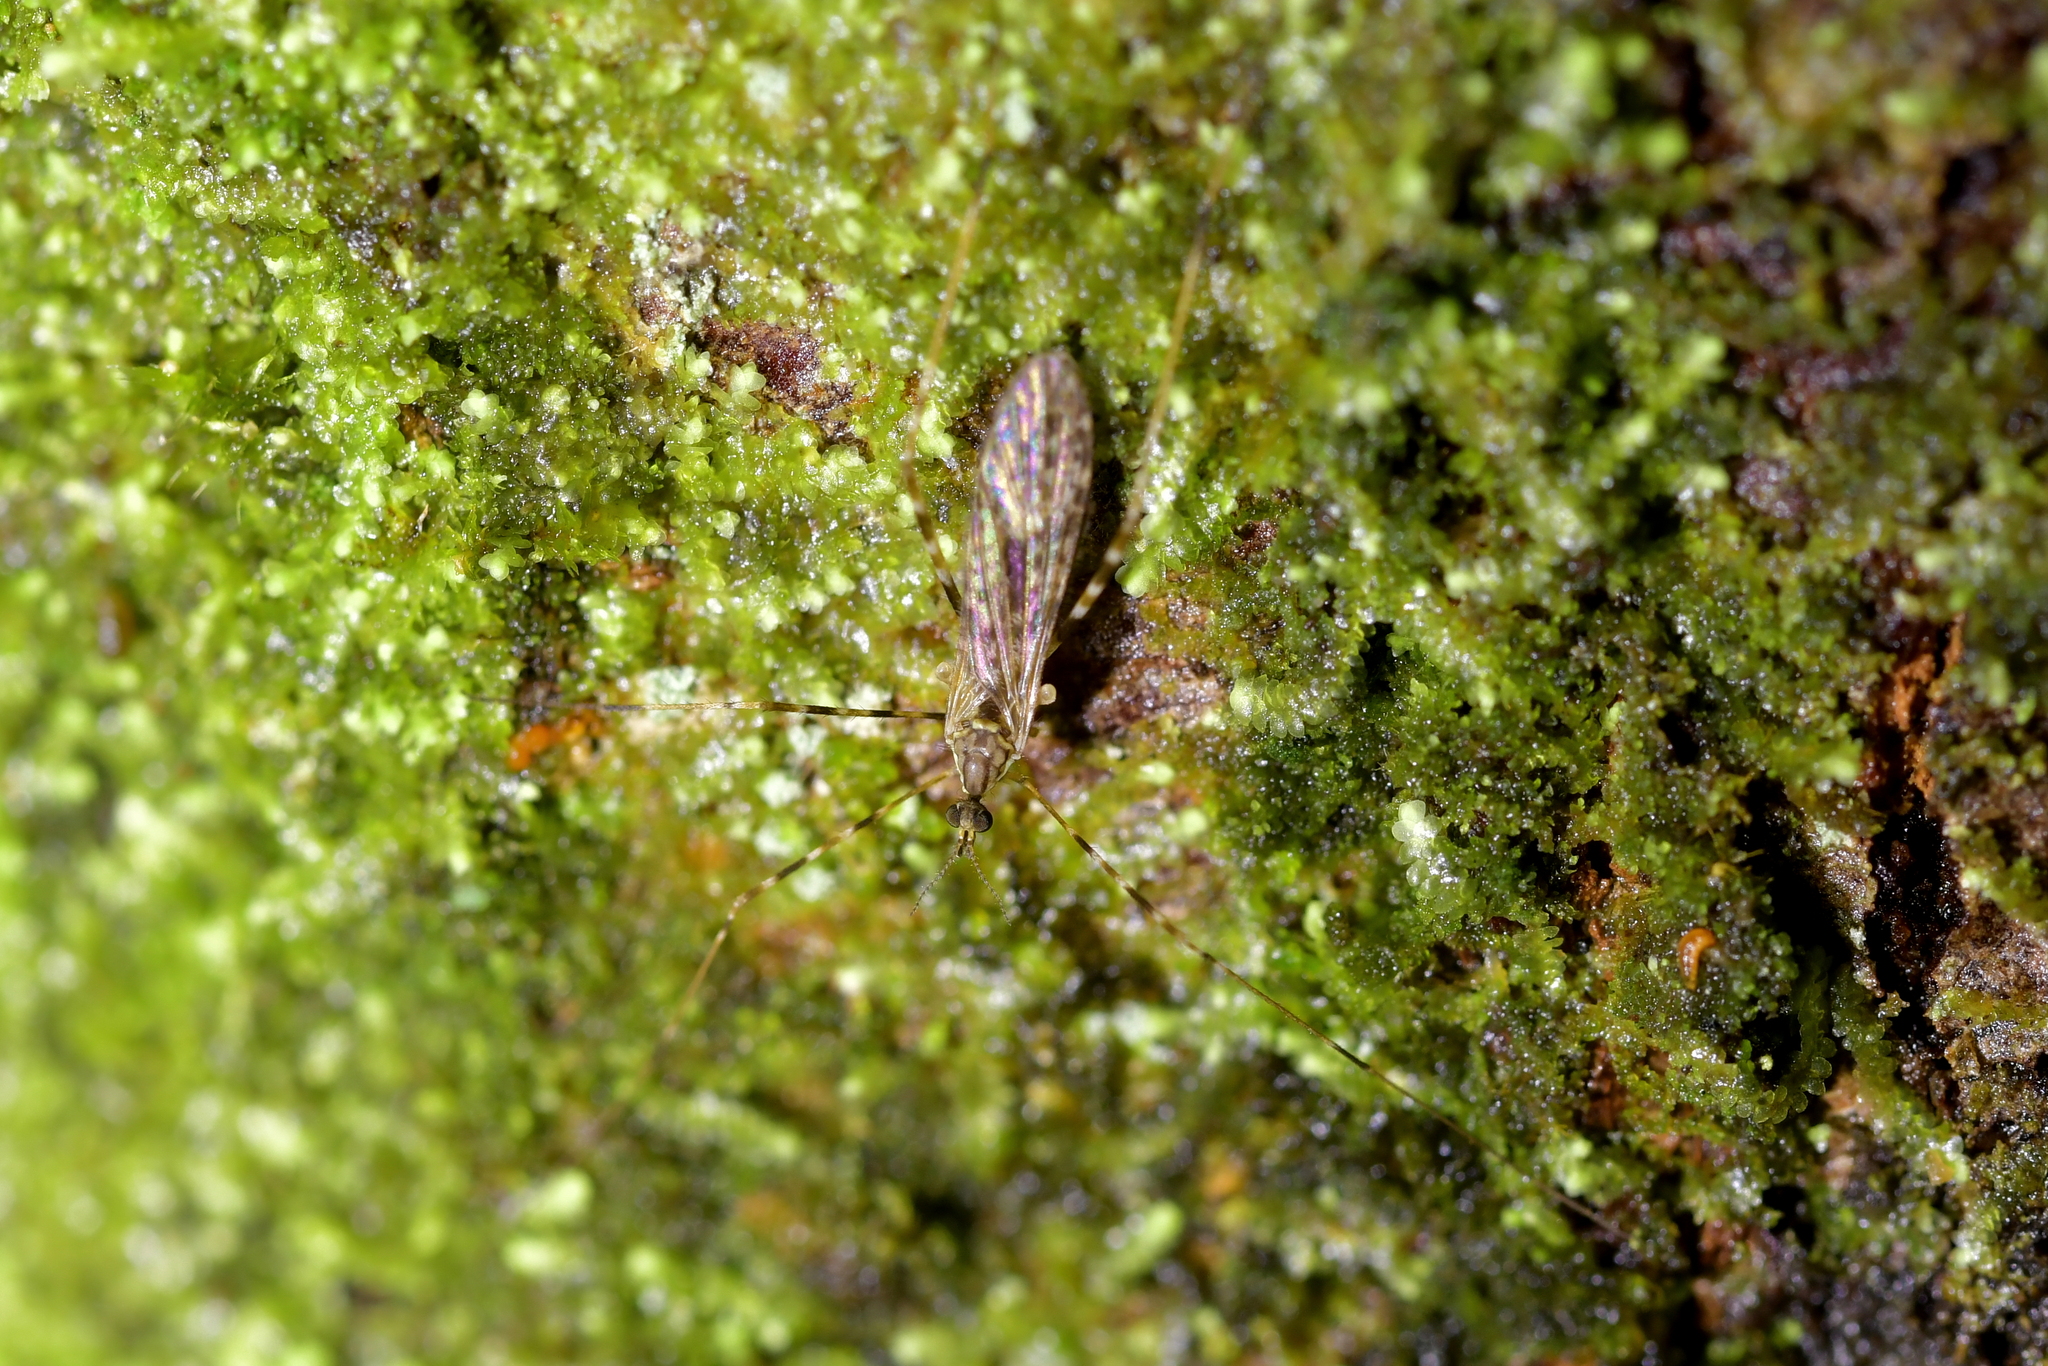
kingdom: Animalia
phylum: Arthropoda
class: Insecta
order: Diptera
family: Limoniidae
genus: Amphineurus
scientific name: Amphineurus hudsoni
